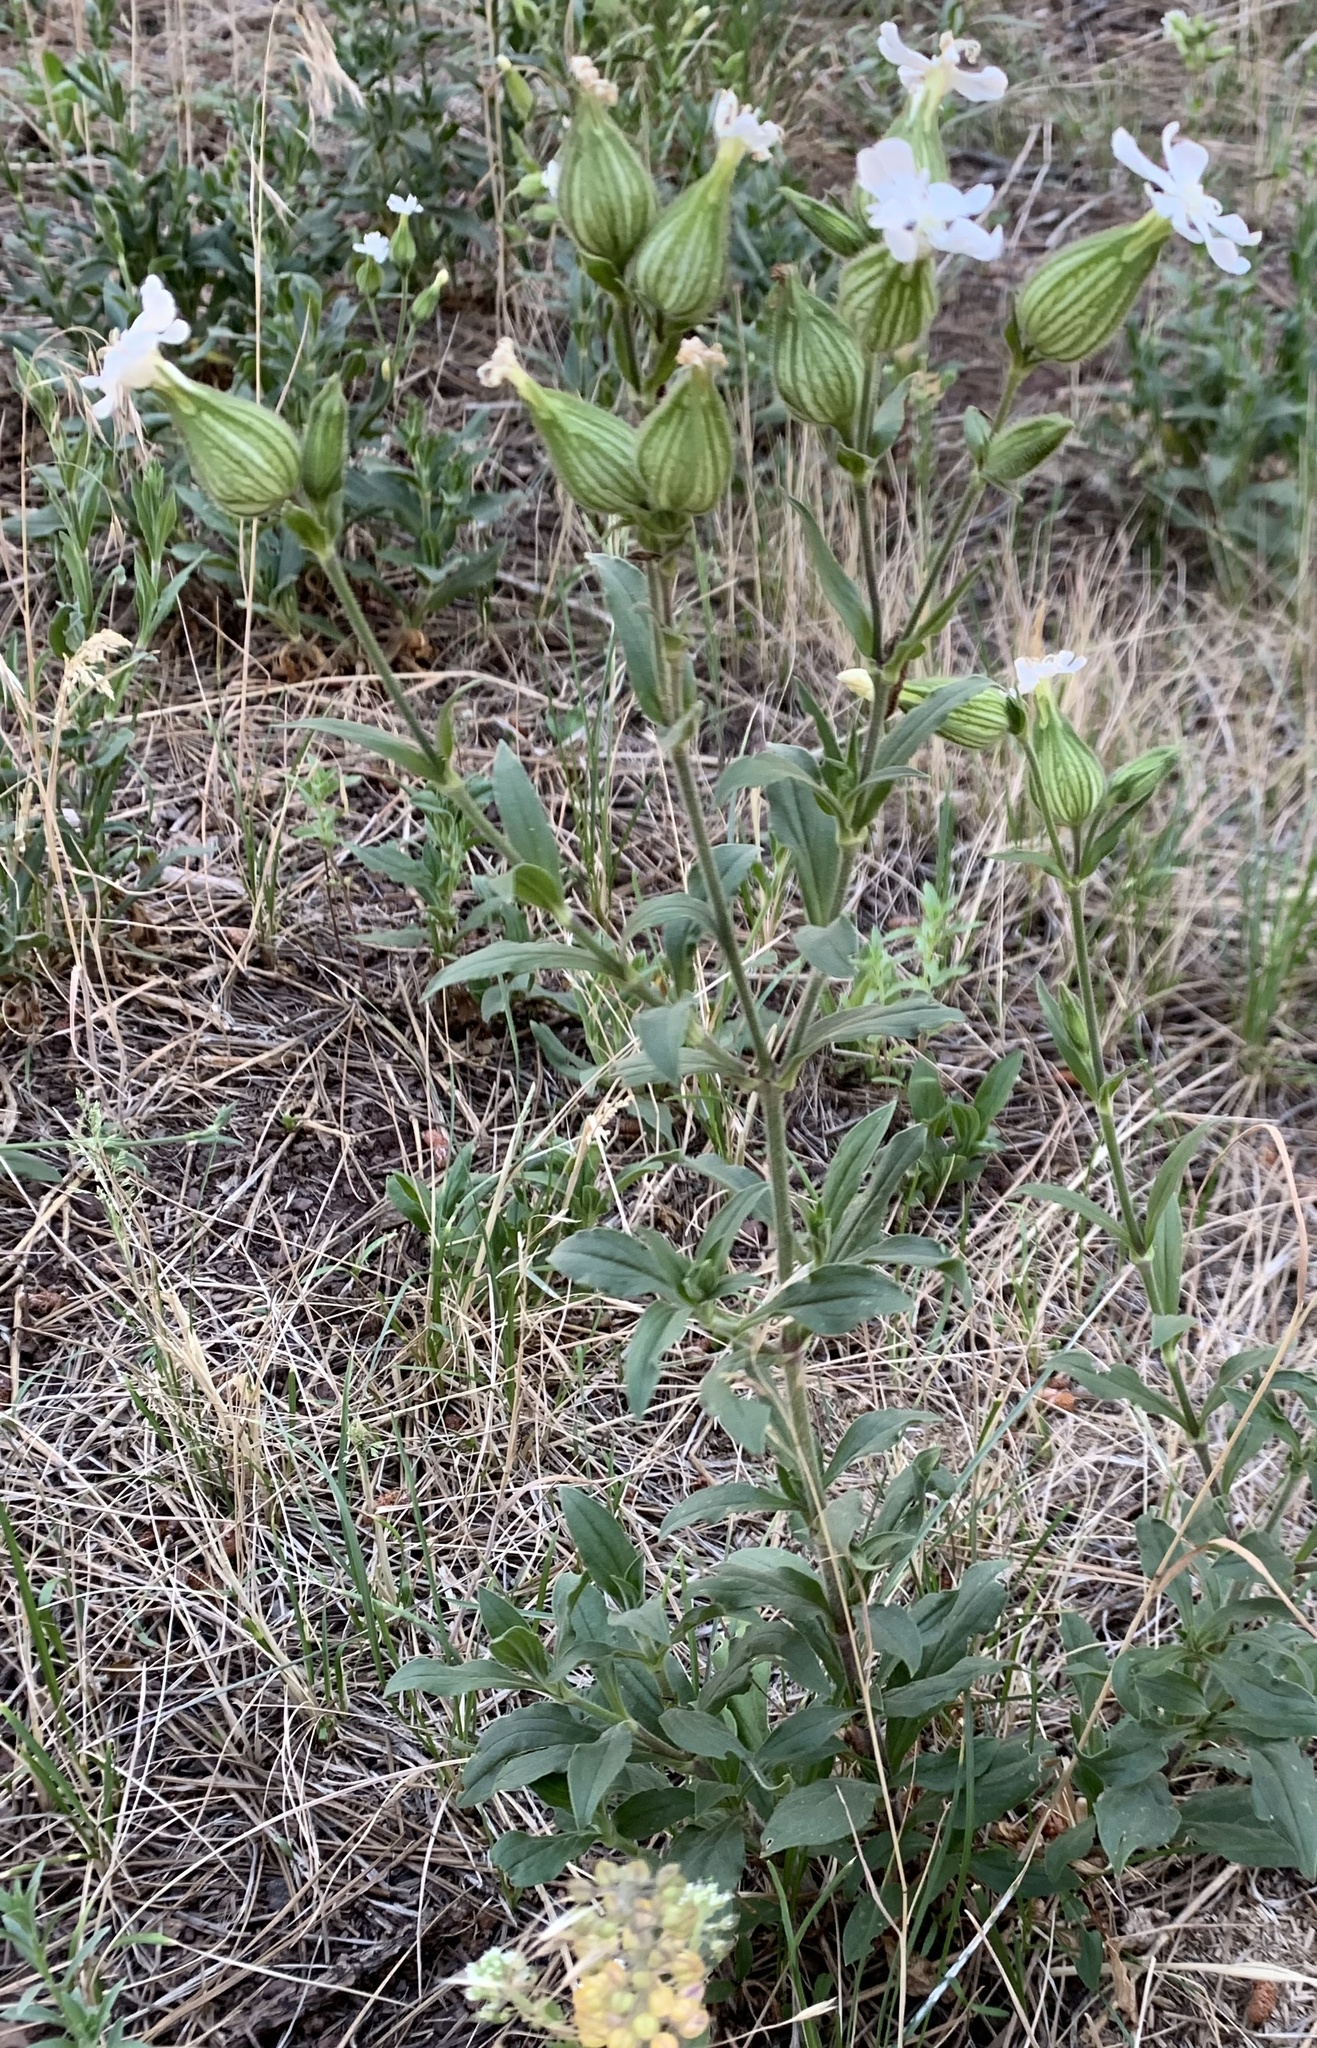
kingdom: Plantae
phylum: Tracheophyta
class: Magnoliopsida
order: Caryophyllales
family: Caryophyllaceae
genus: Silene
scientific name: Silene latifolia
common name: White campion
